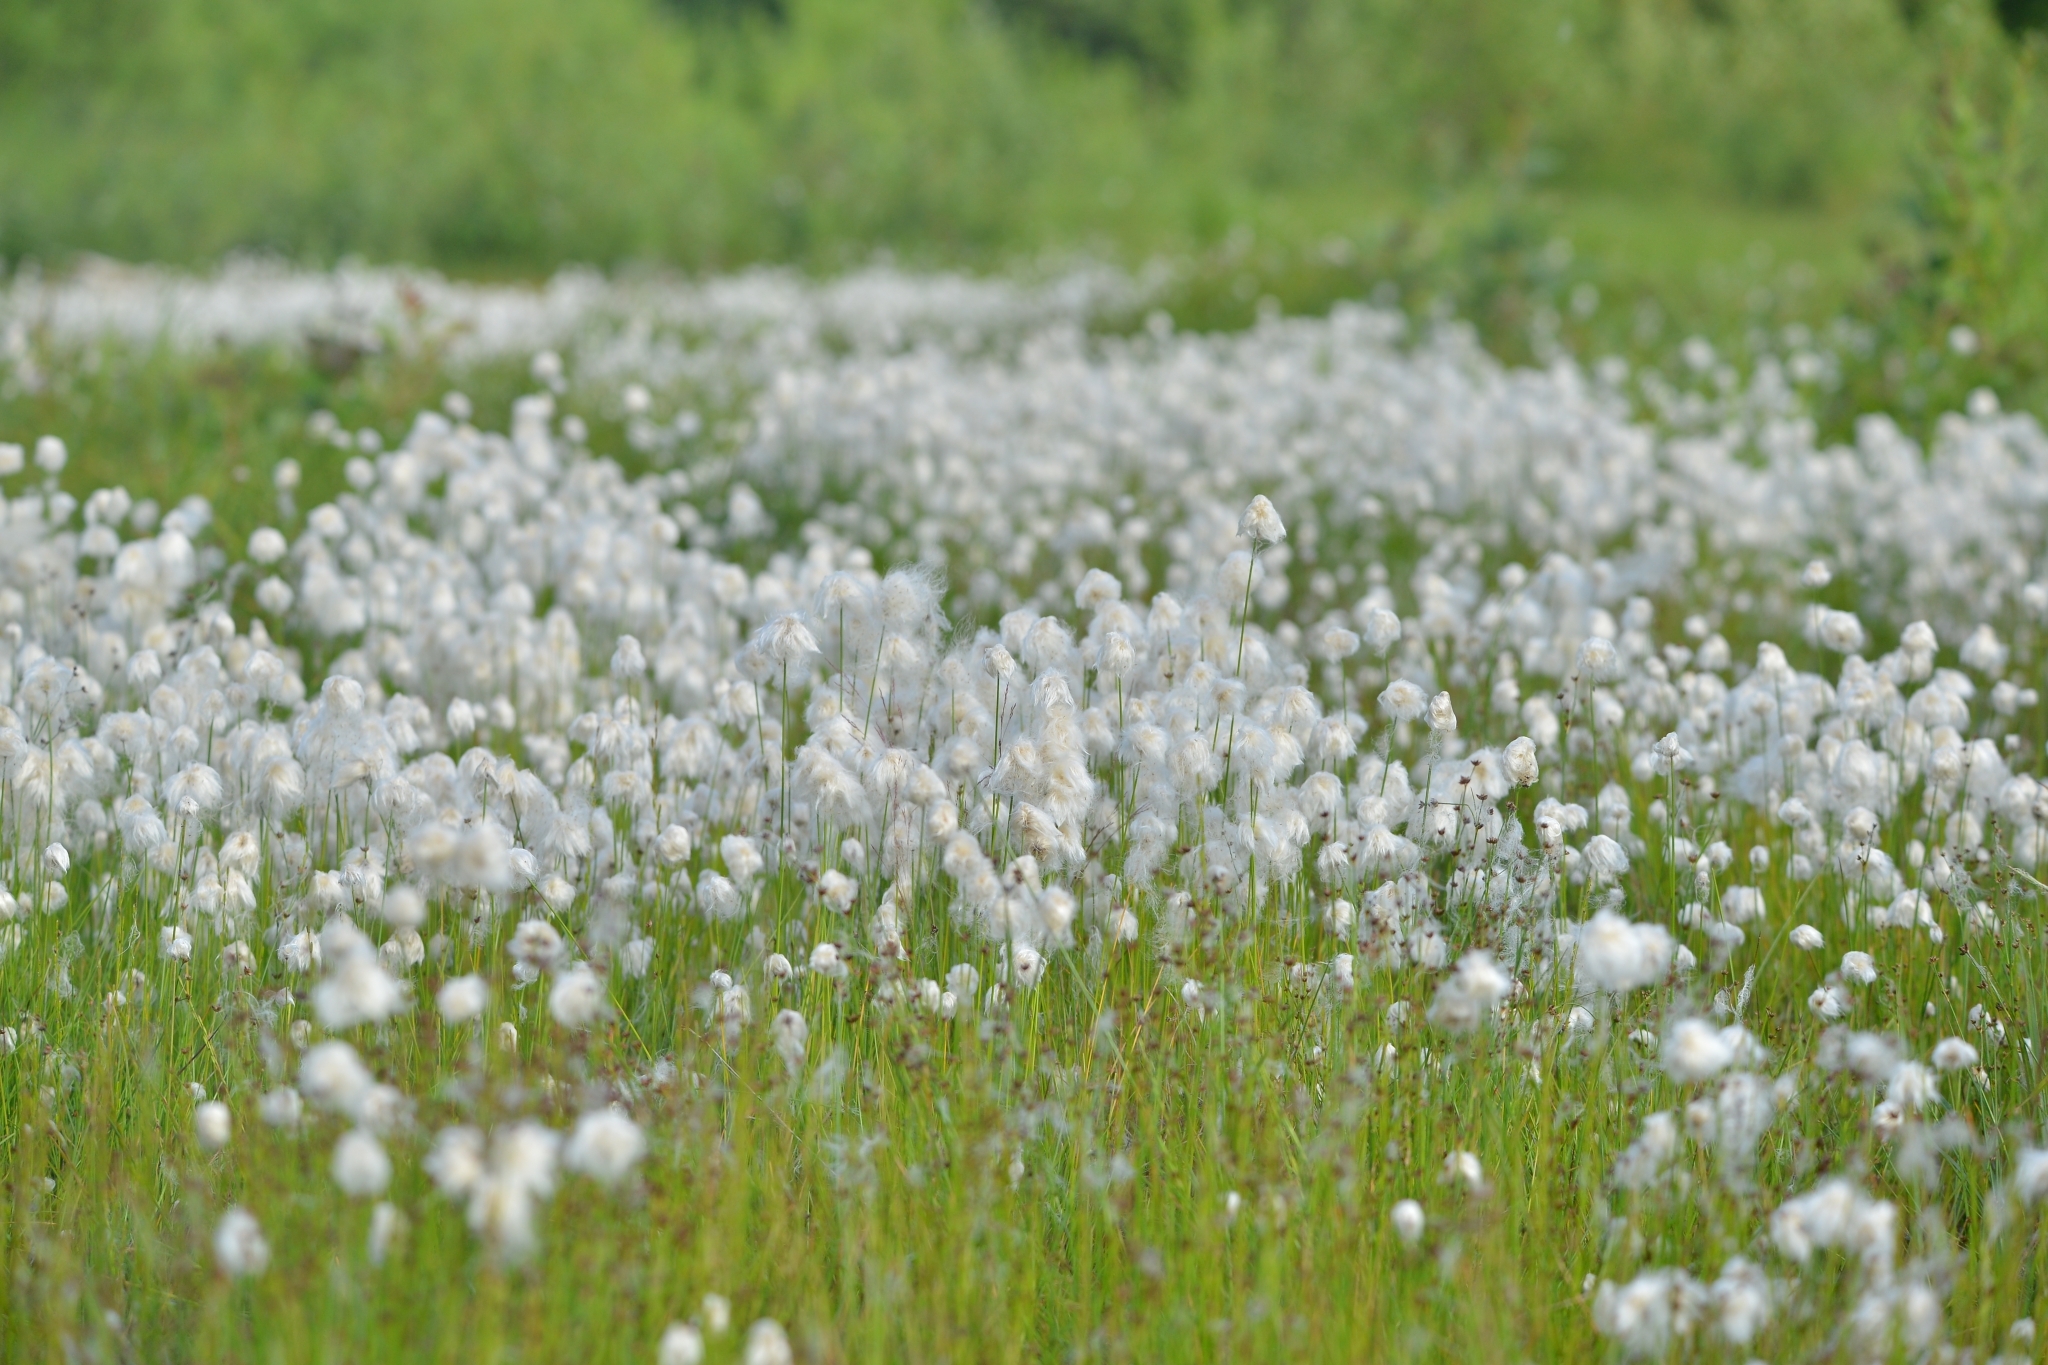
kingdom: Plantae
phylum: Tracheophyta
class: Liliopsida
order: Poales
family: Cyperaceae
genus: Eriophorum
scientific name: Eriophorum scheuchzeri
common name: Scheuchzer's cottongrass
